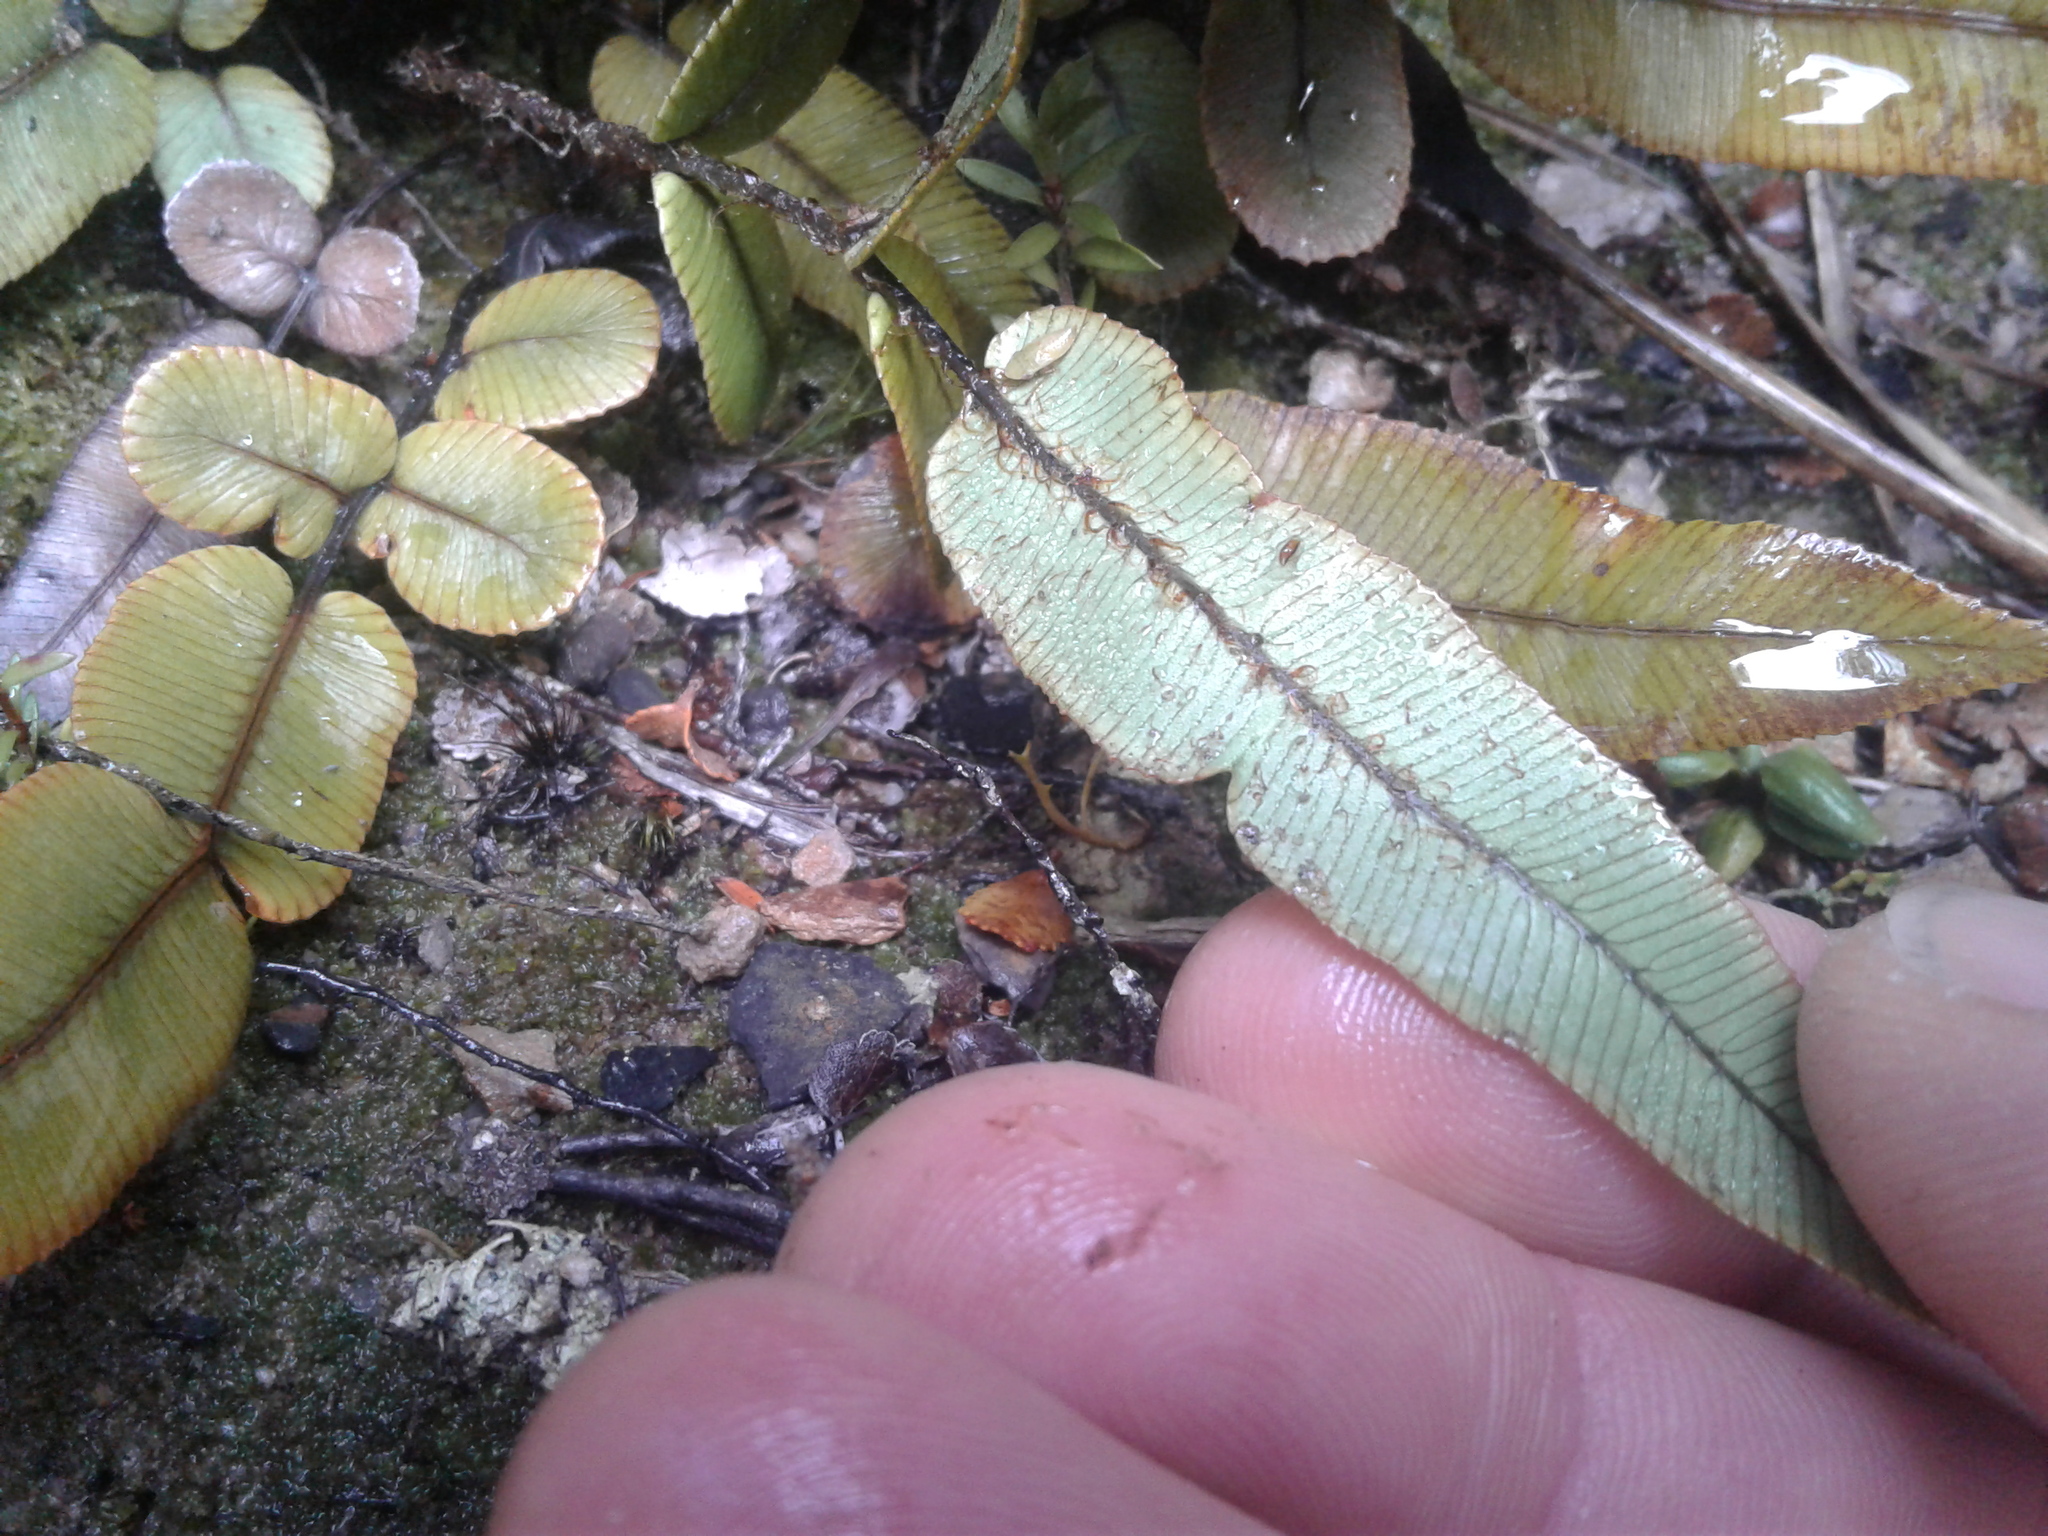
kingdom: Plantae
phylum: Tracheophyta
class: Polypodiopsida
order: Polypodiales
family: Blechnaceae
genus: Parablechnum
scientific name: Parablechnum procerum
